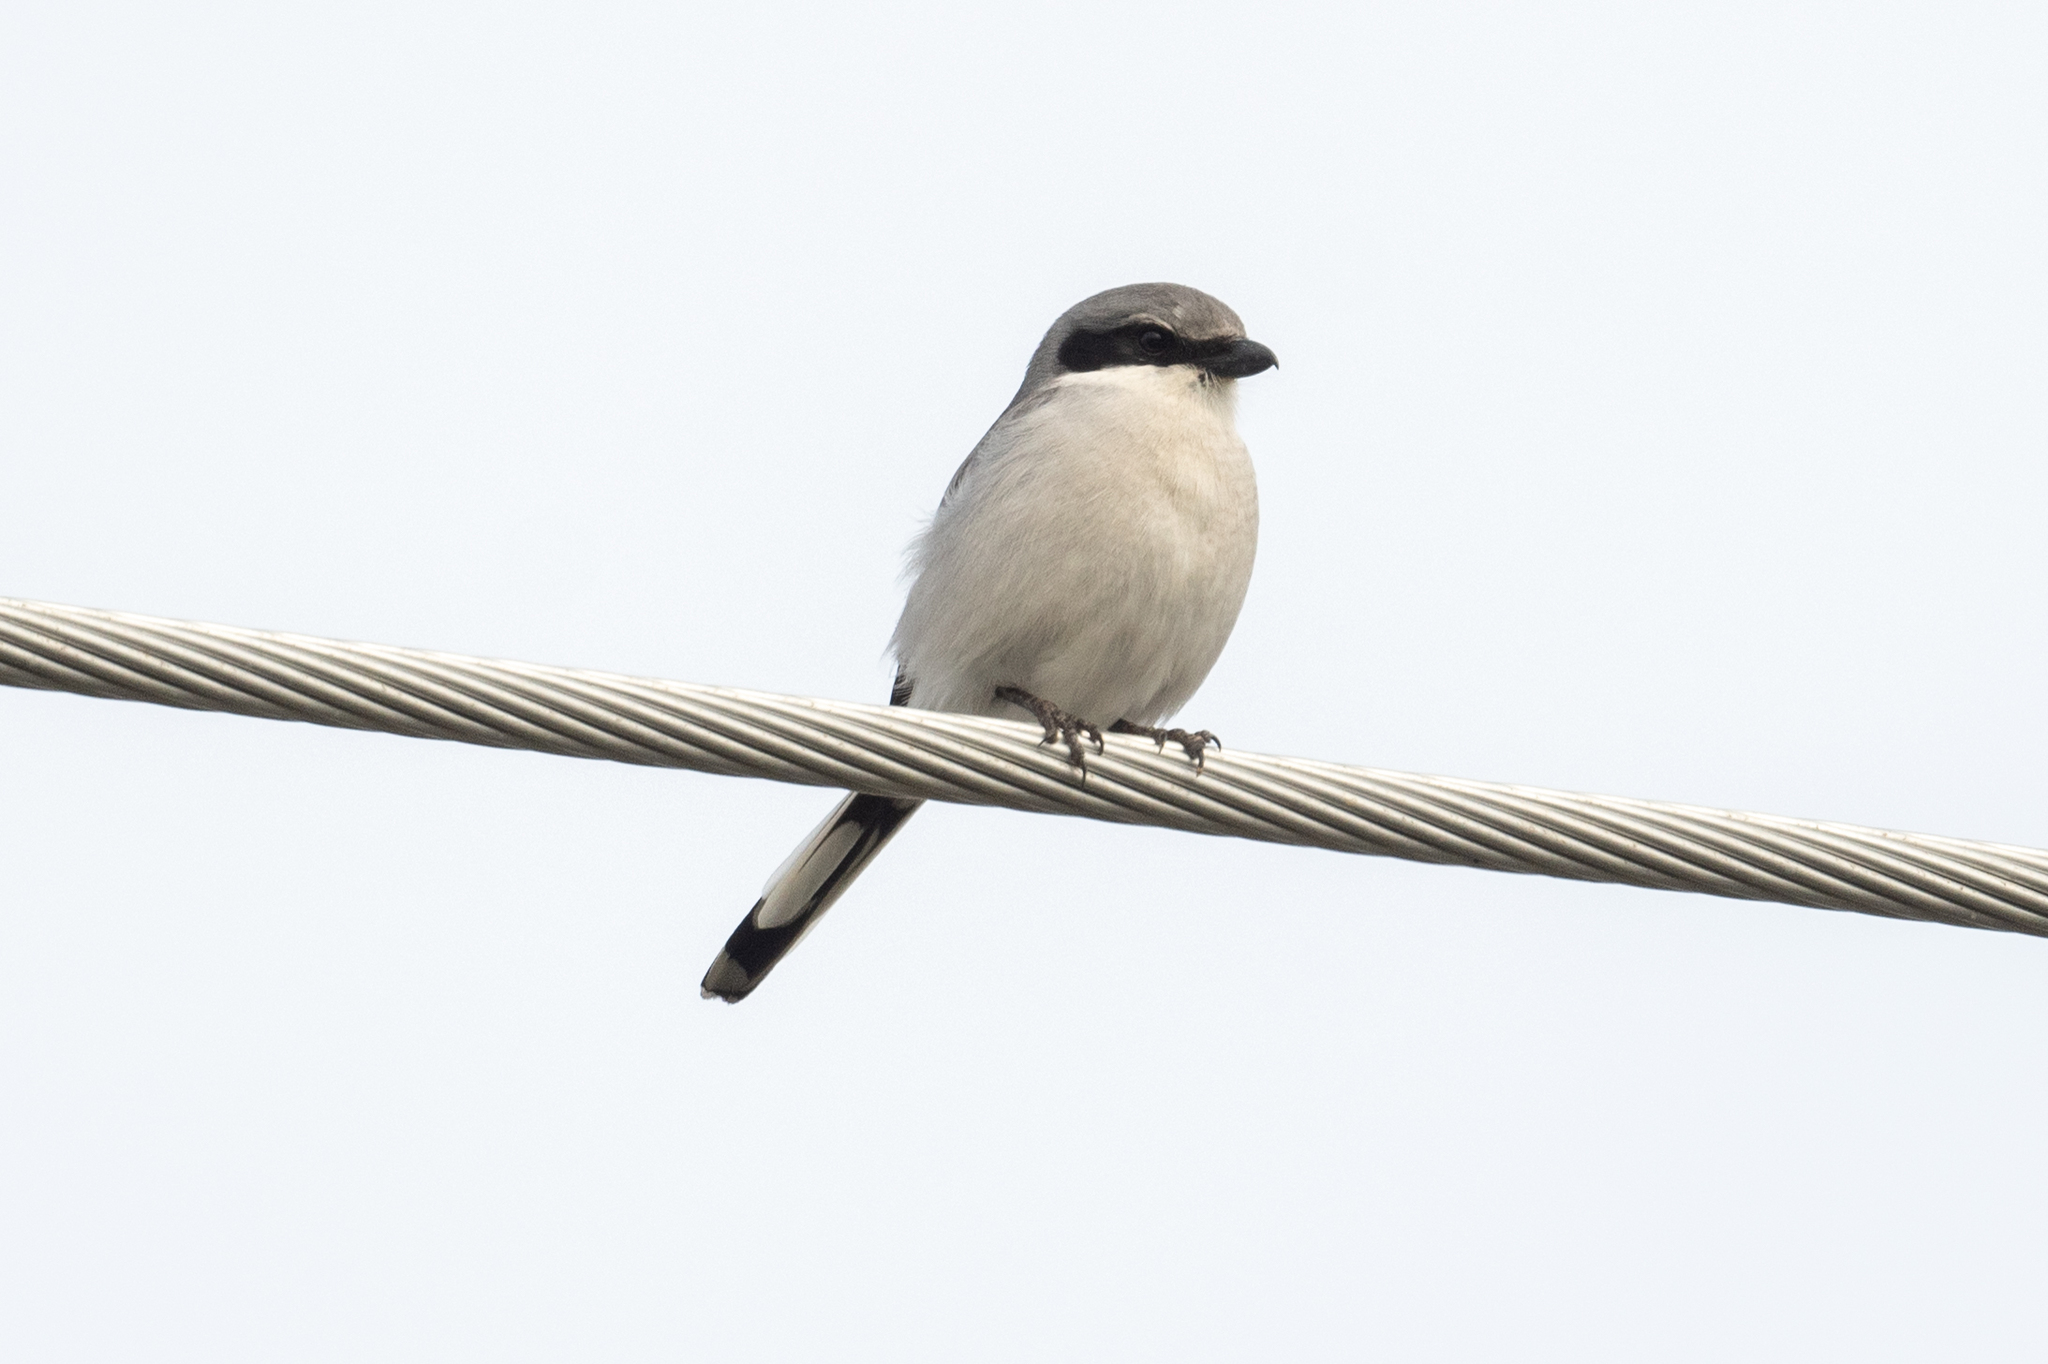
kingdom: Animalia
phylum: Chordata
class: Aves
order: Passeriformes
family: Laniidae
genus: Lanius
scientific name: Lanius ludovicianus
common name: Loggerhead shrike
